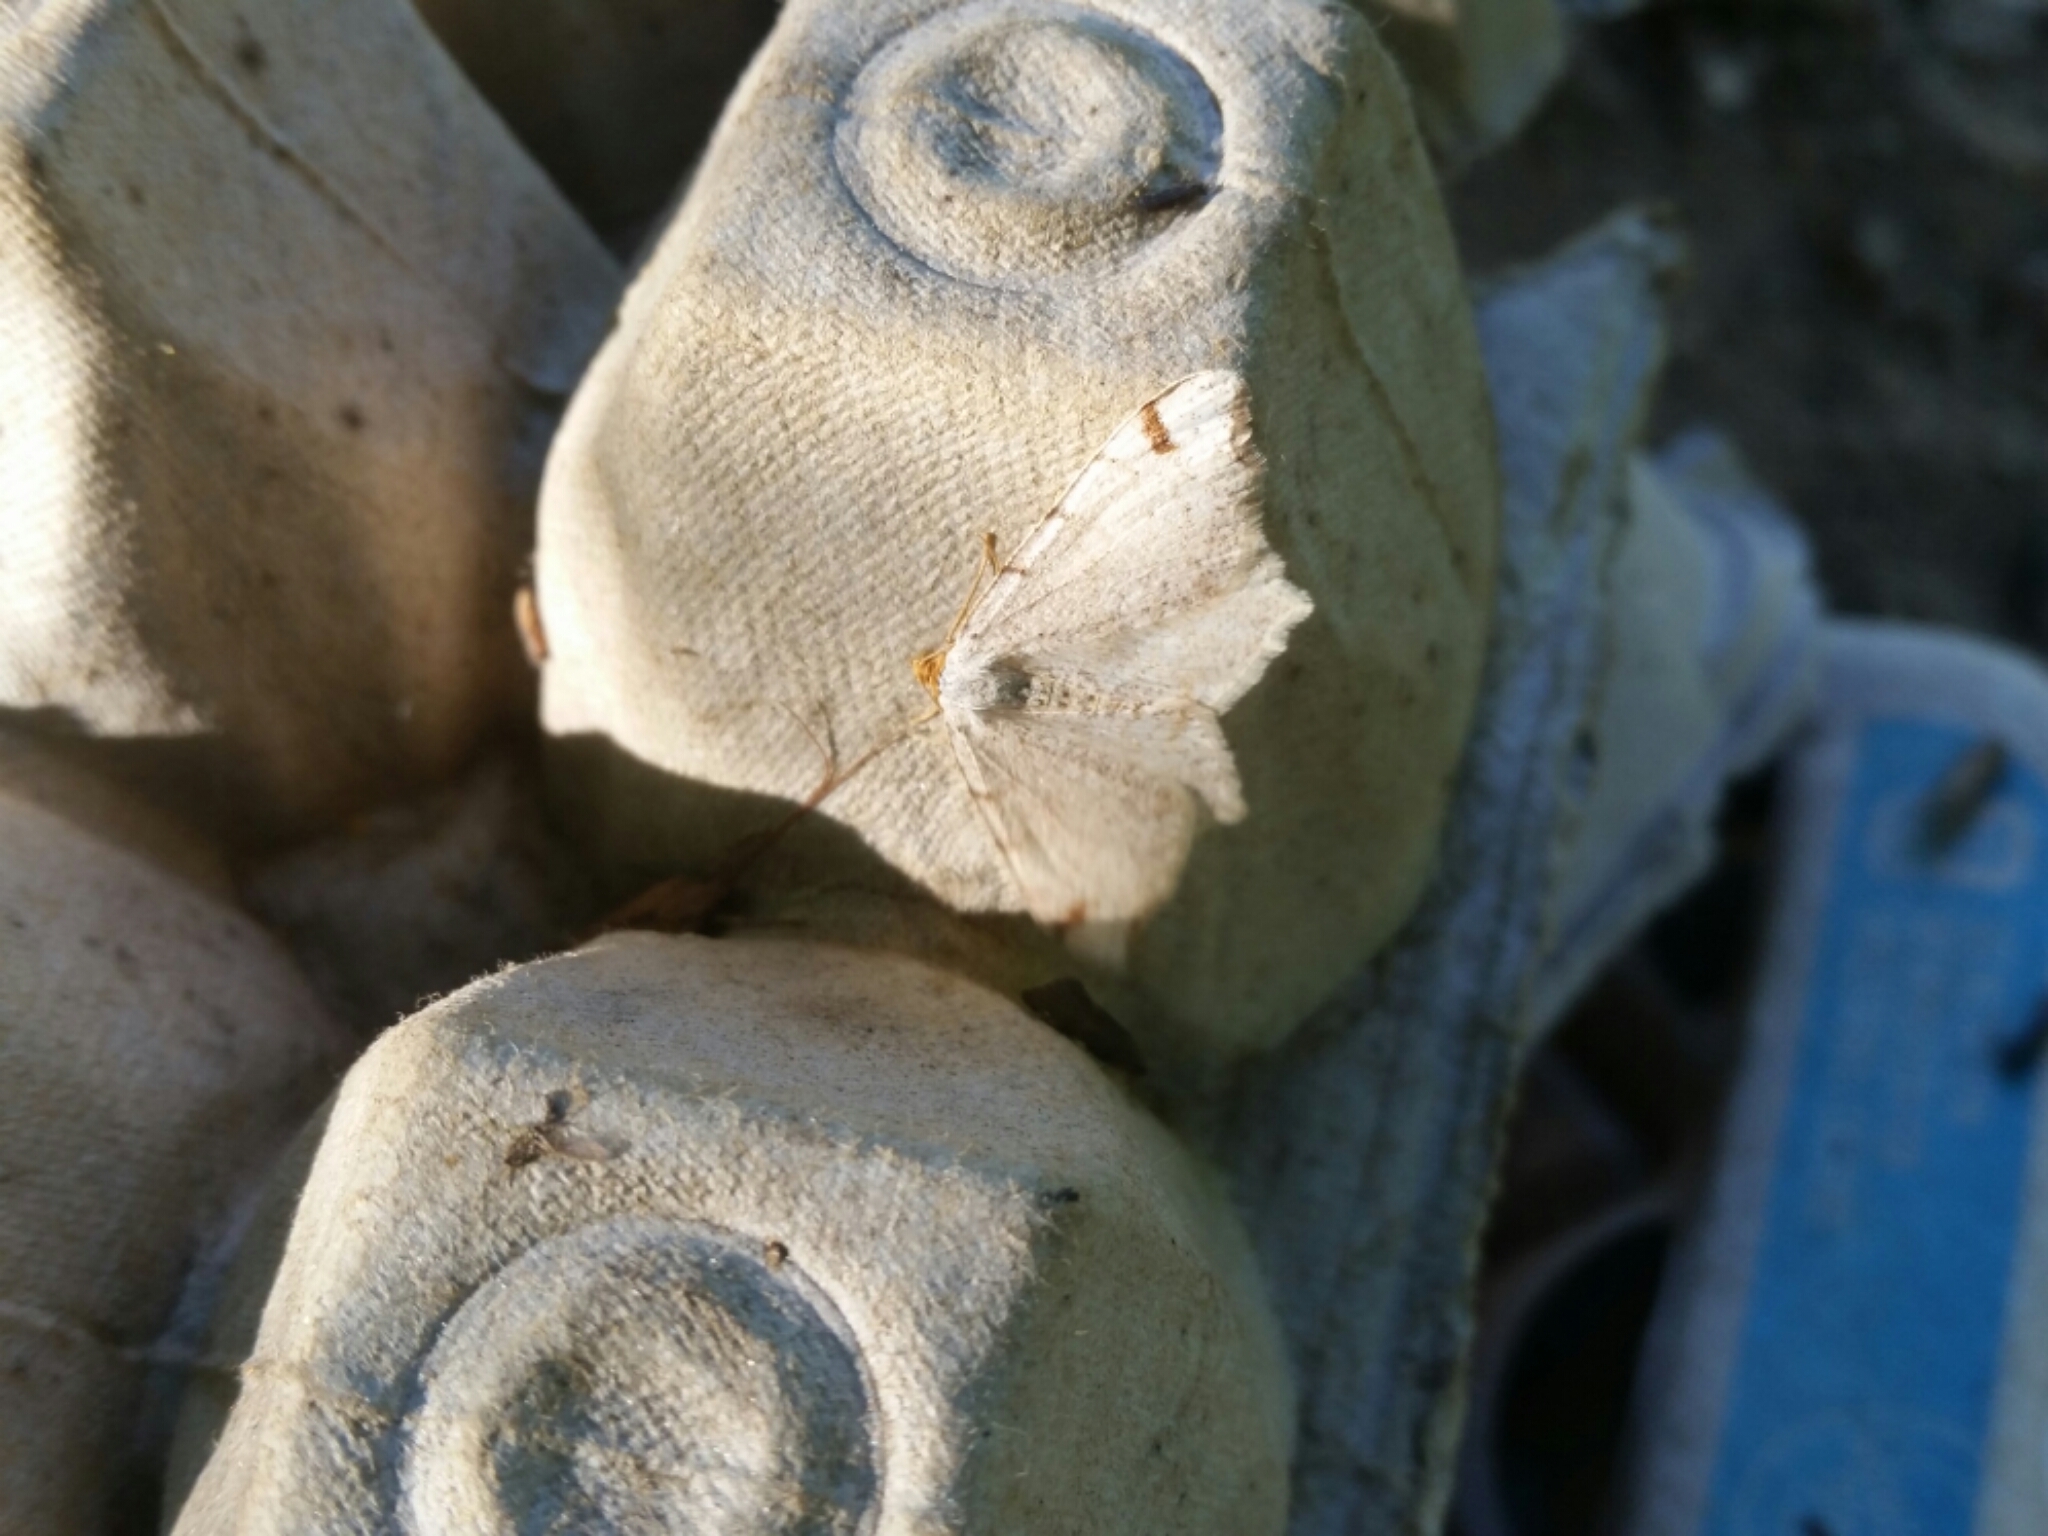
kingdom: Animalia
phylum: Arthropoda
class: Insecta
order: Lepidoptera
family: Geometridae
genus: Macaria
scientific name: Macaria bisignata
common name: Red-headed inchworm
